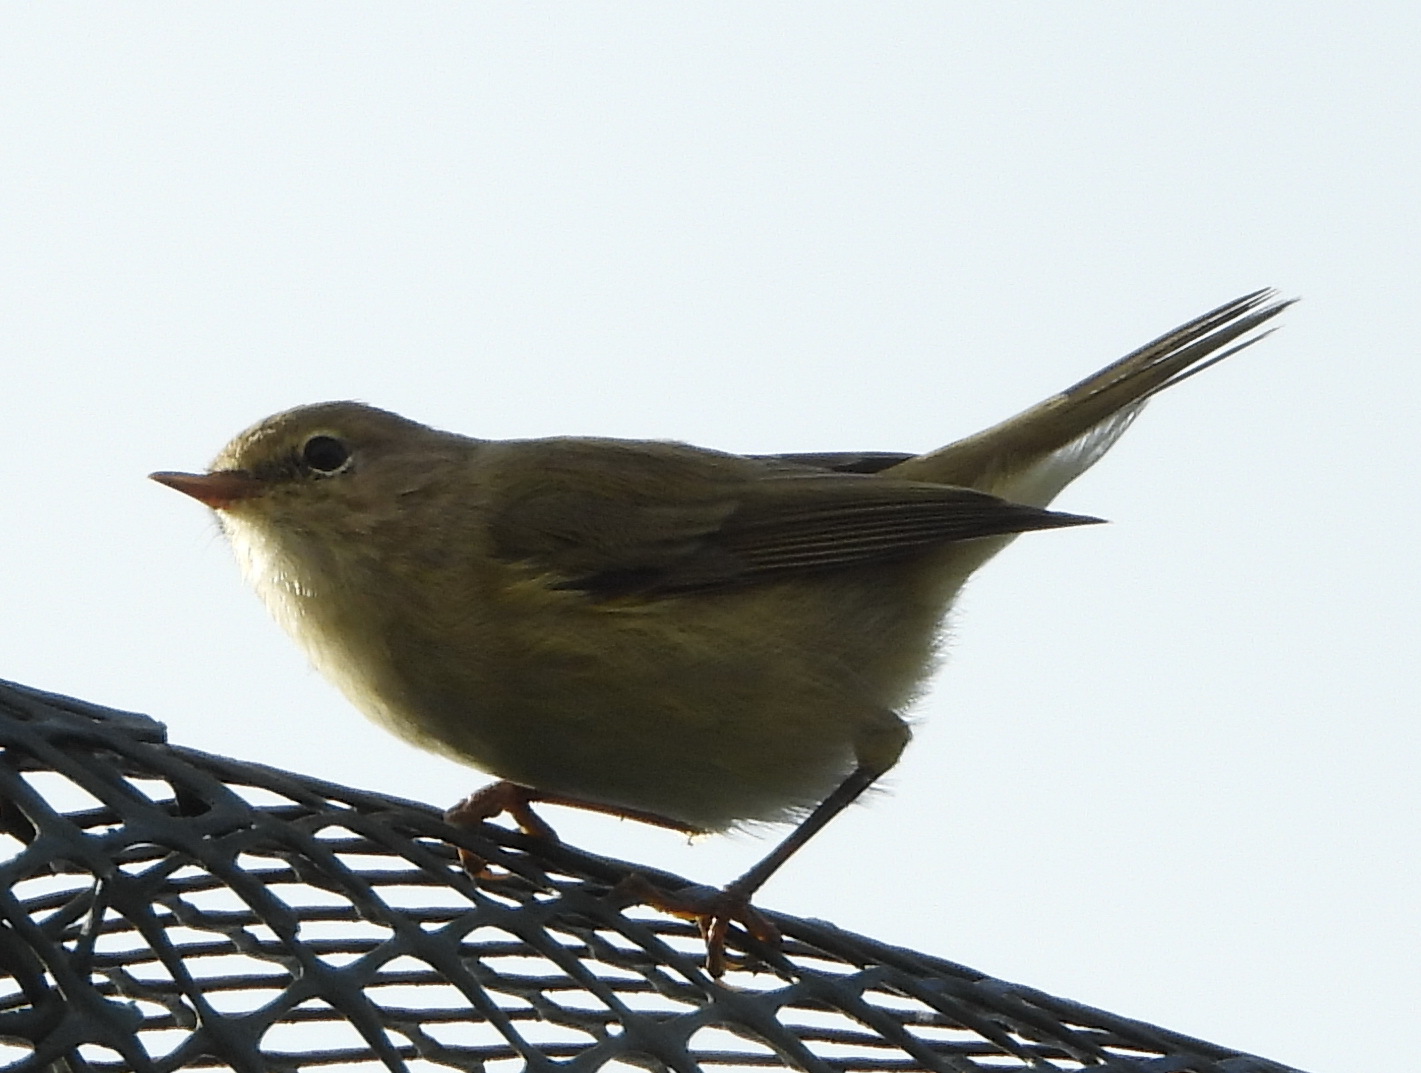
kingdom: Animalia
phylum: Chordata
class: Aves
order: Passeriformes
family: Phylloscopidae
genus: Phylloscopus
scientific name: Phylloscopus collybita
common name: Common chiffchaff
